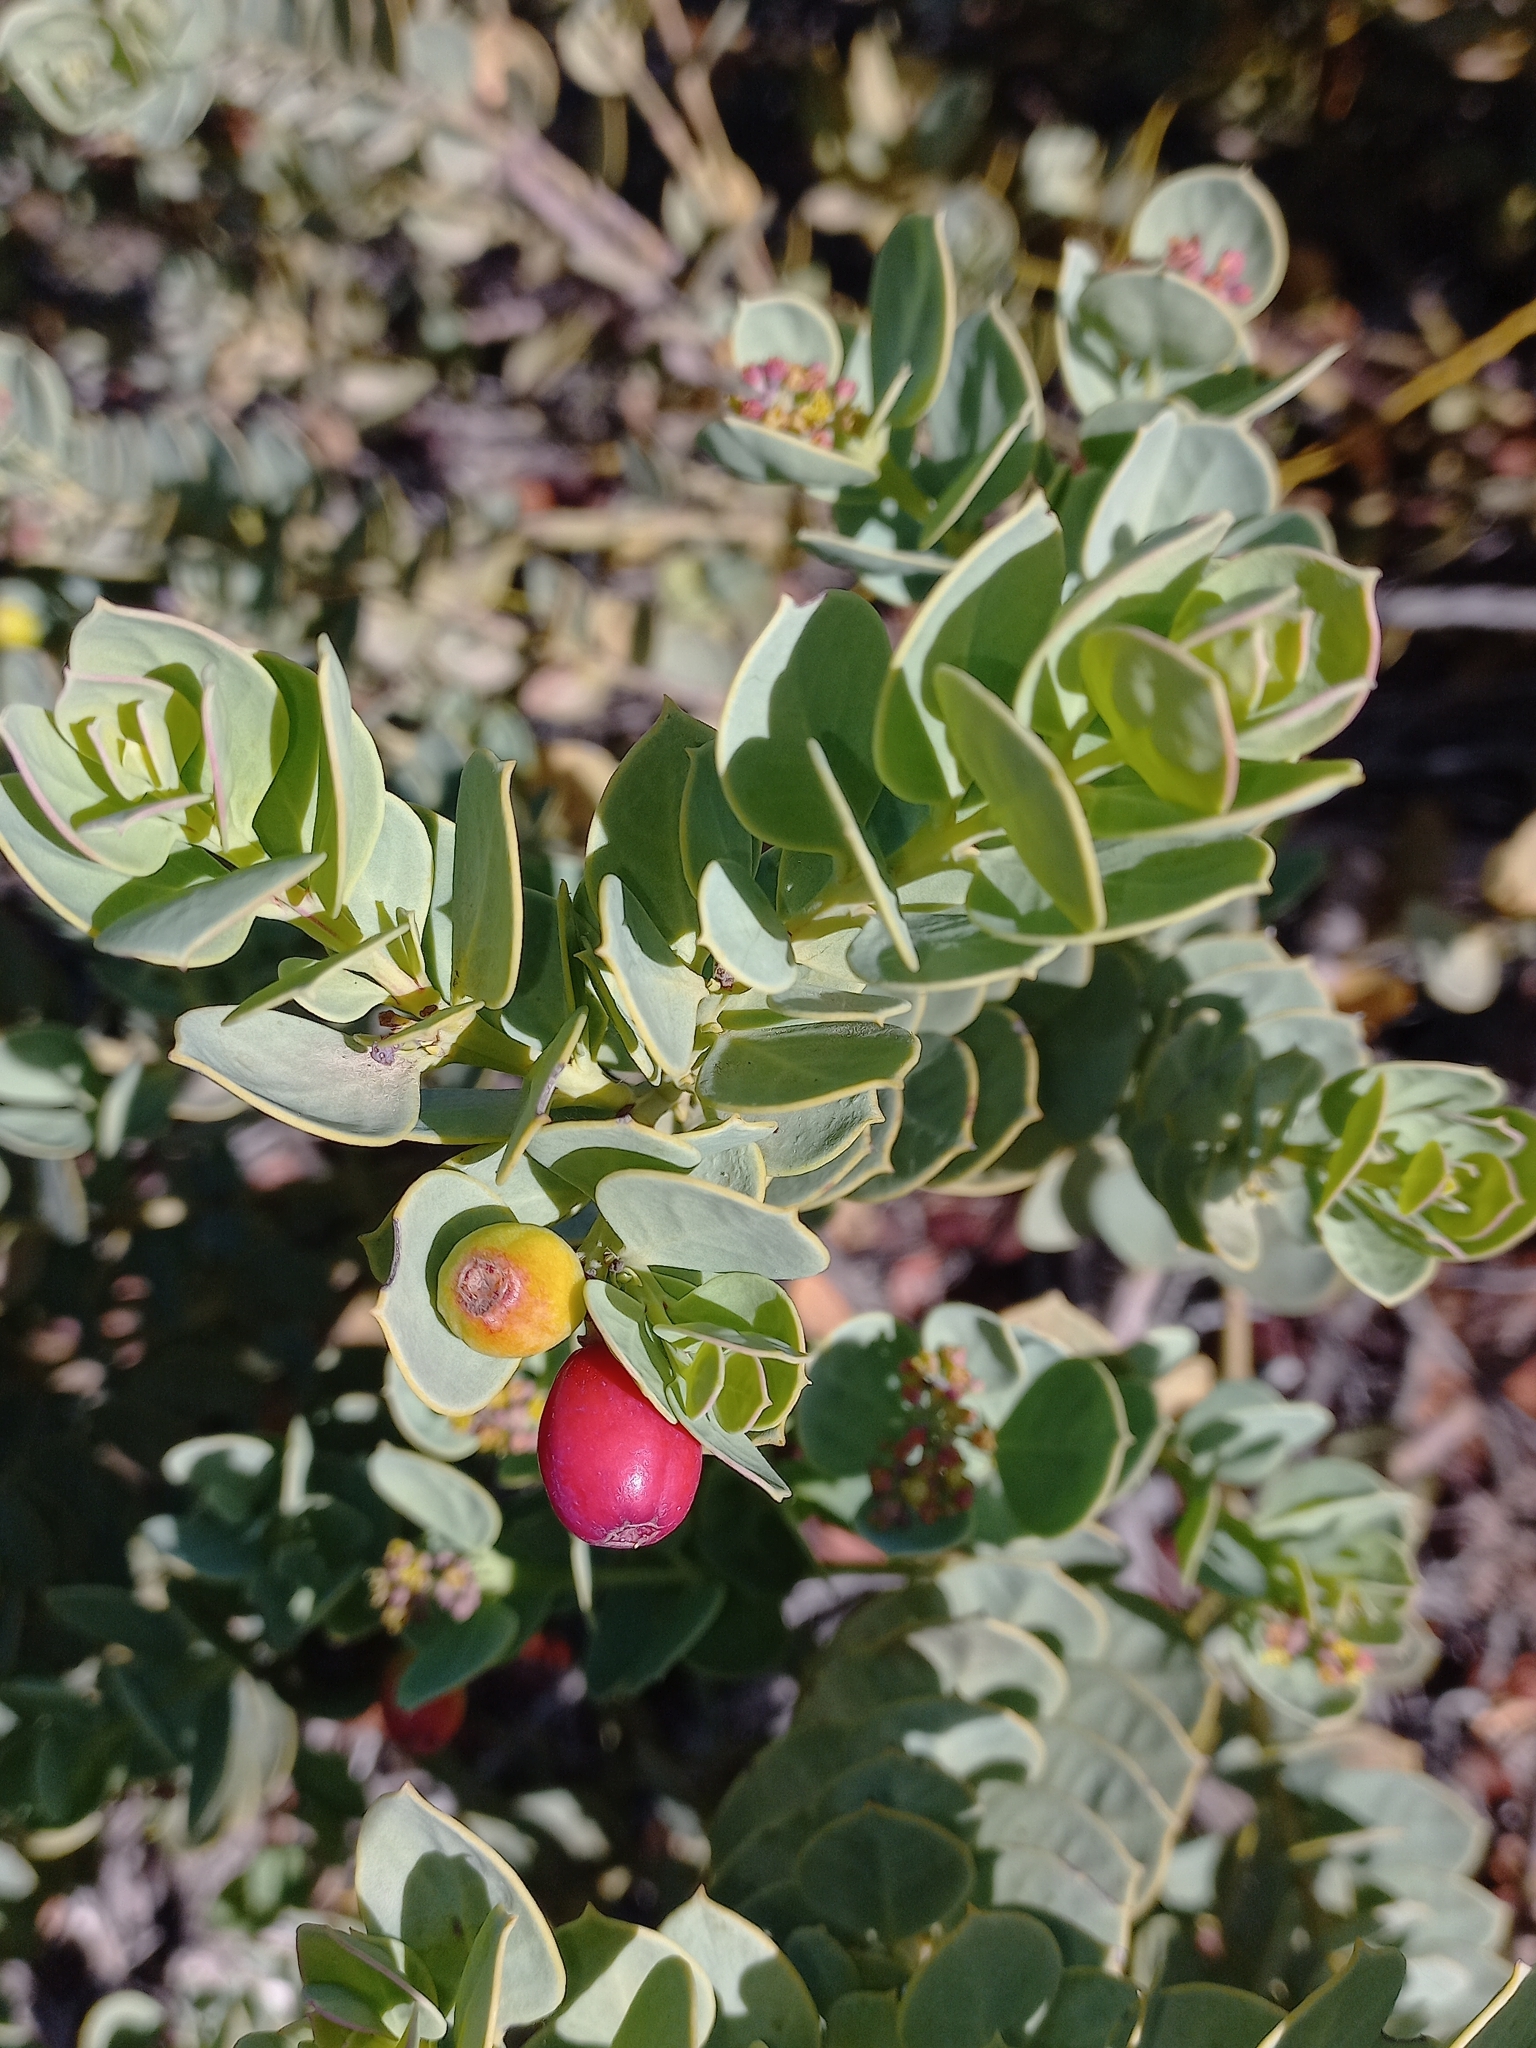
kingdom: Plantae
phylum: Tracheophyta
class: Magnoliopsida
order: Santalales
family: Santalaceae
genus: Osyris
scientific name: Osyris compressa
